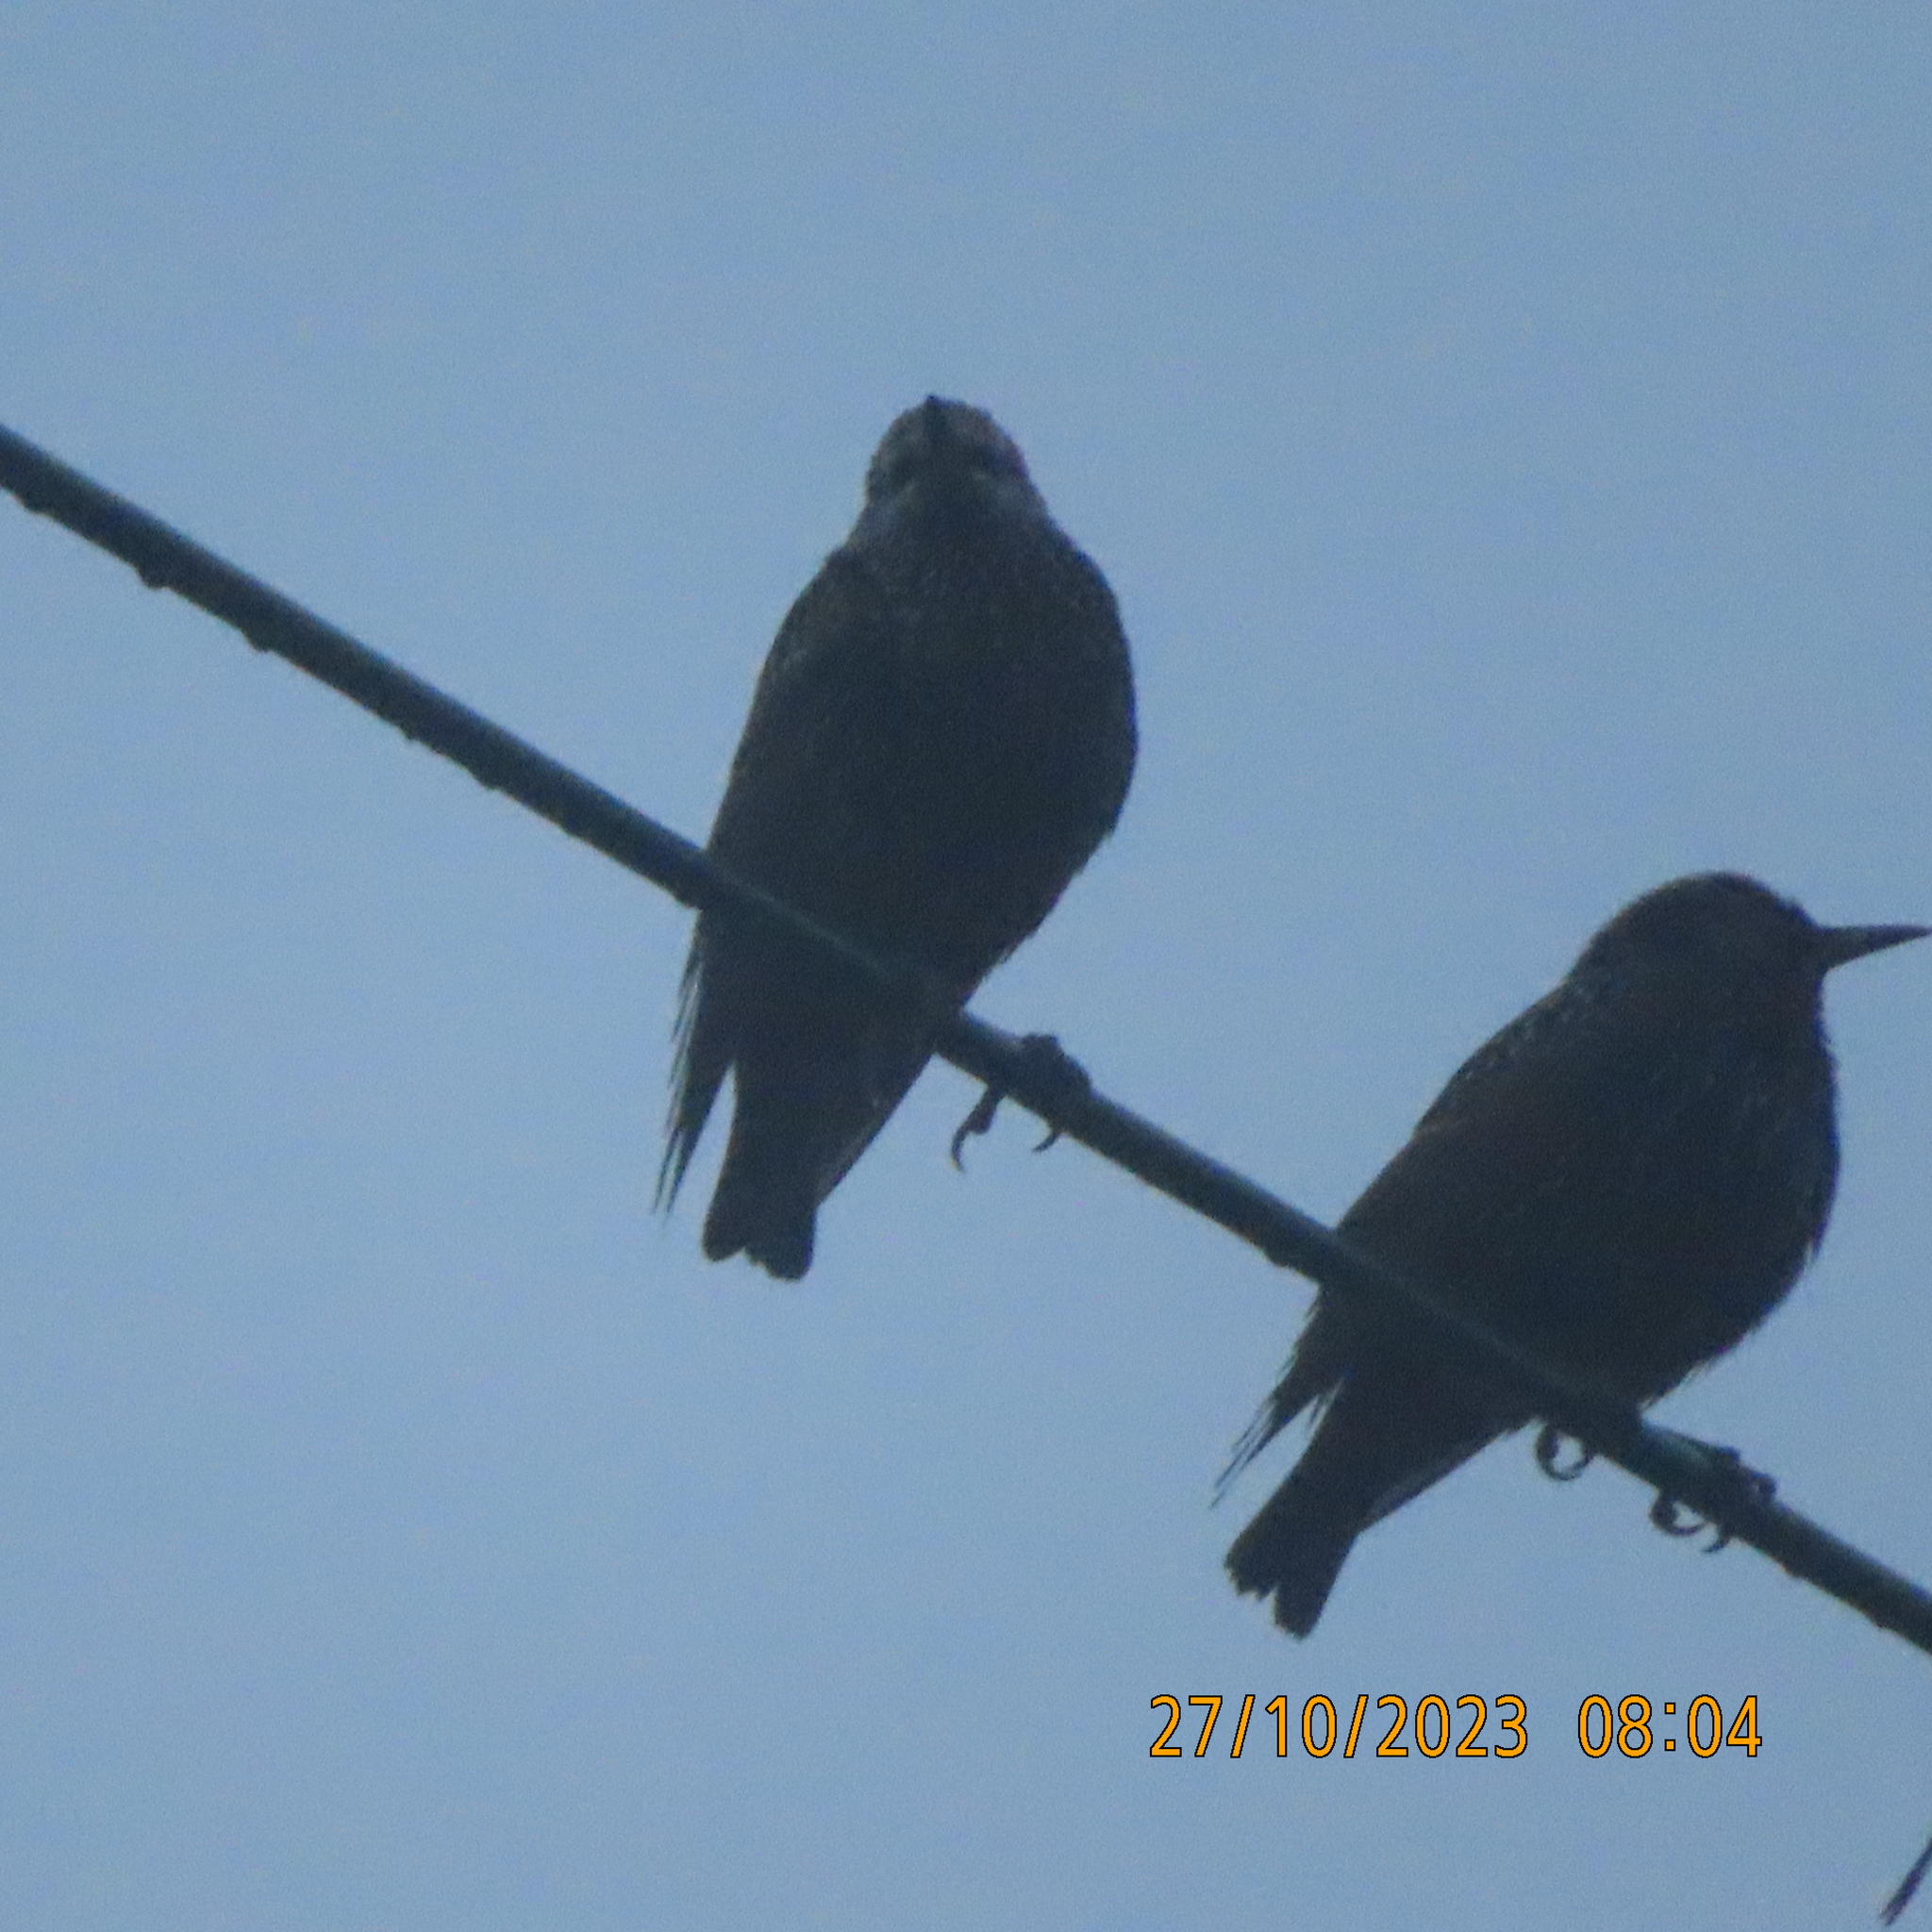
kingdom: Animalia
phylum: Chordata
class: Aves
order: Passeriformes
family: Sturnidae
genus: Sturnus
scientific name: Sturnus vulgaris
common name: Common starling
